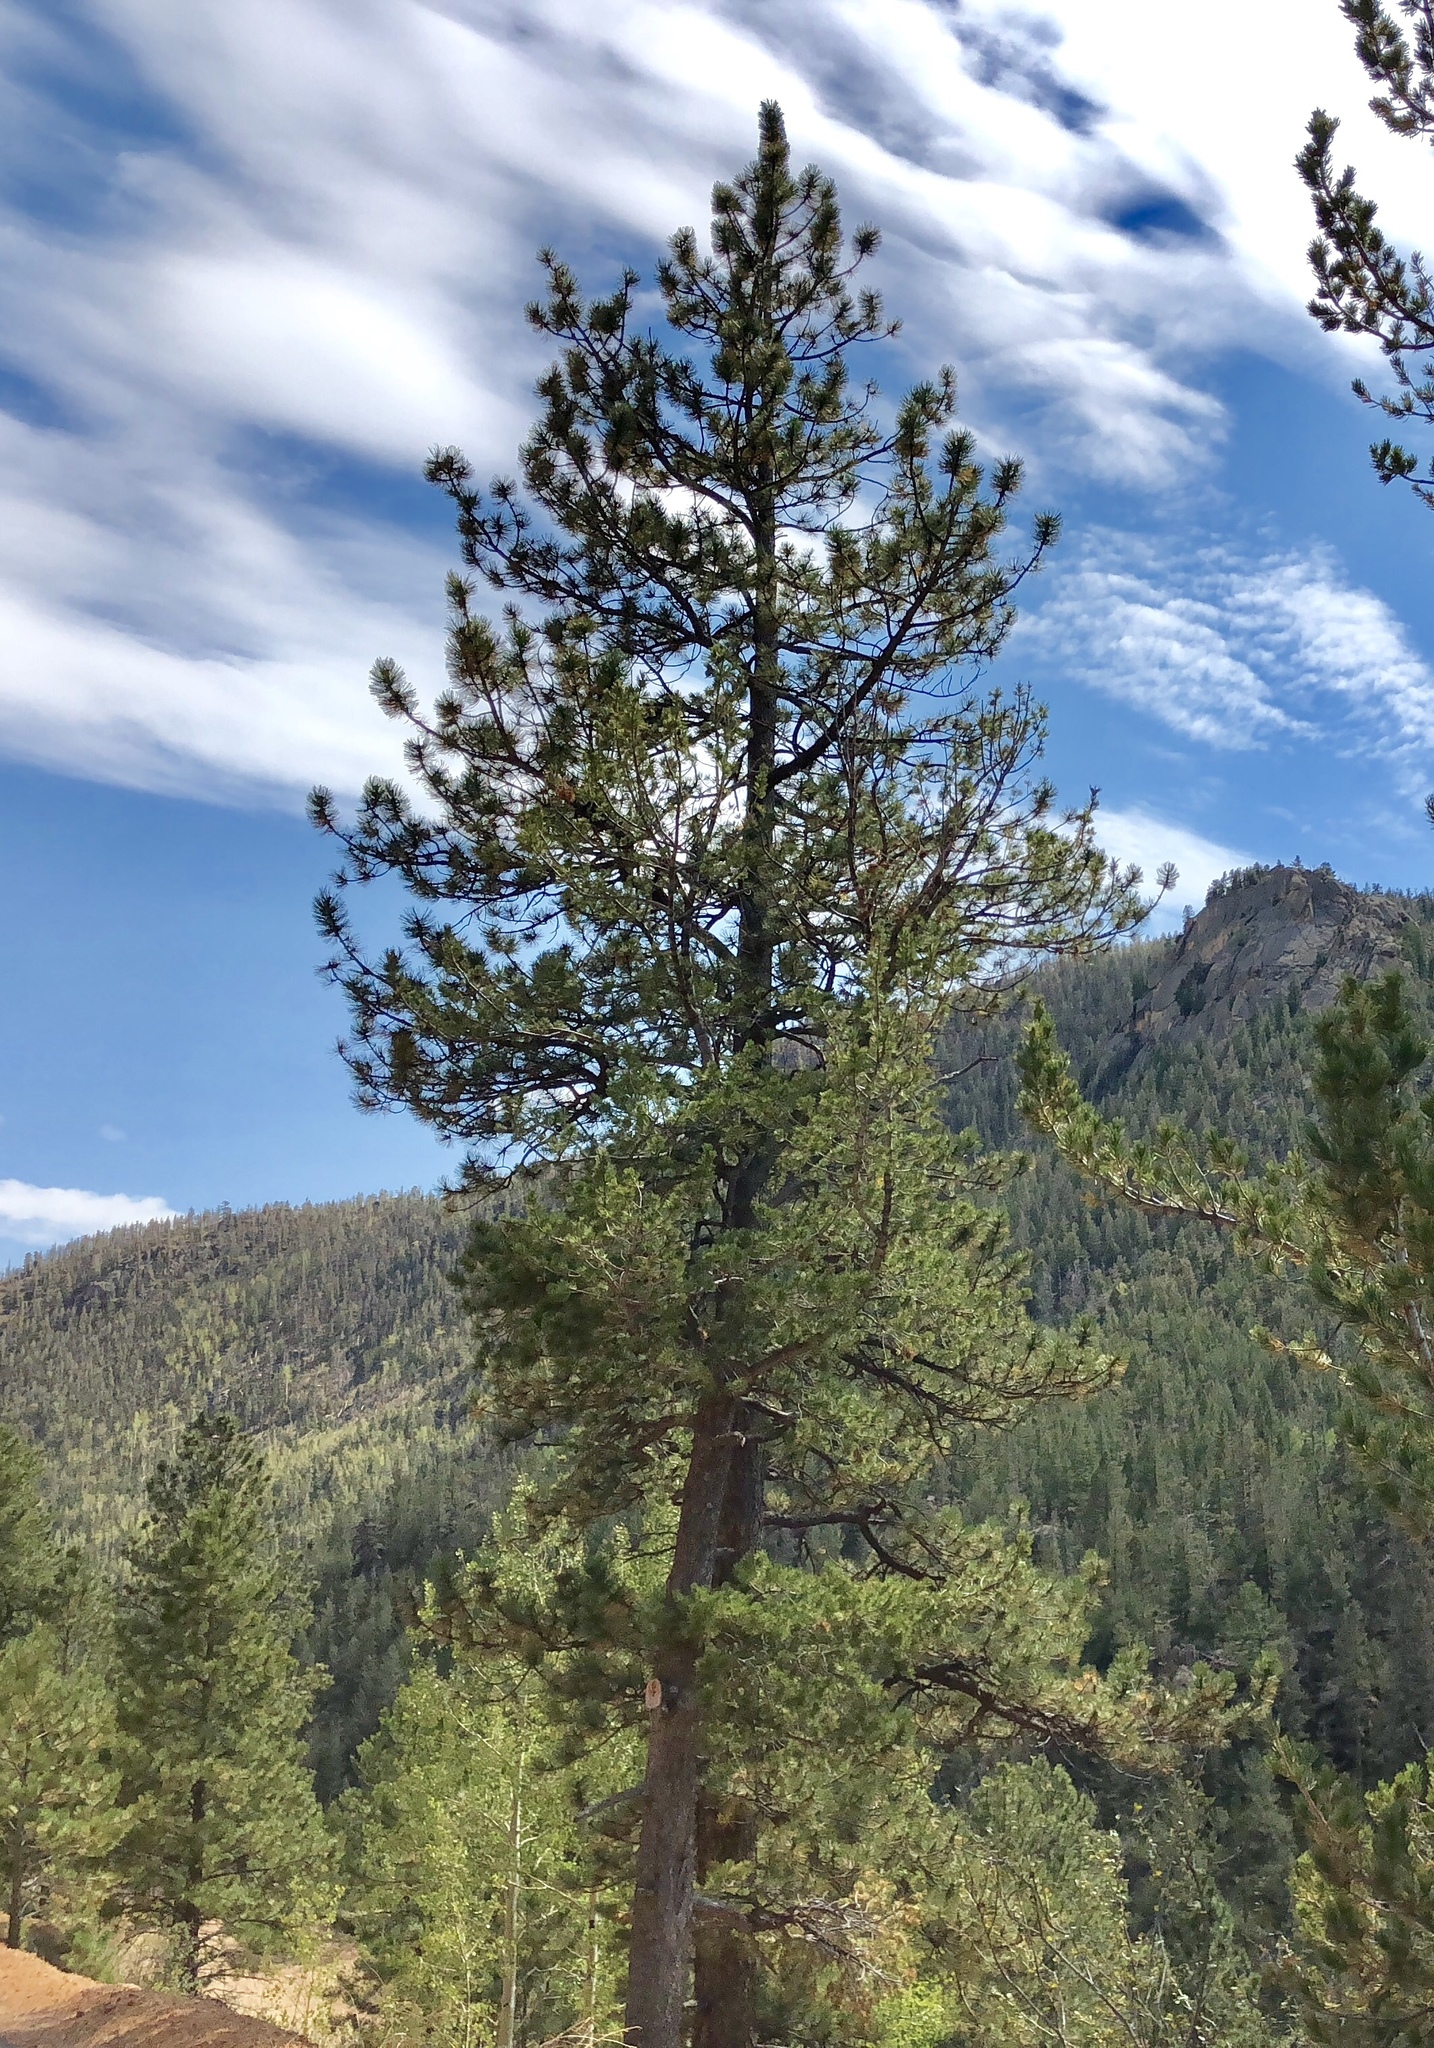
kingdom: Plantae
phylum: Tracheophyta
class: Pinopsida
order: Pinales
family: Pinaceae
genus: Pinus
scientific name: Pinus ponderosa
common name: Western yellow-pine
